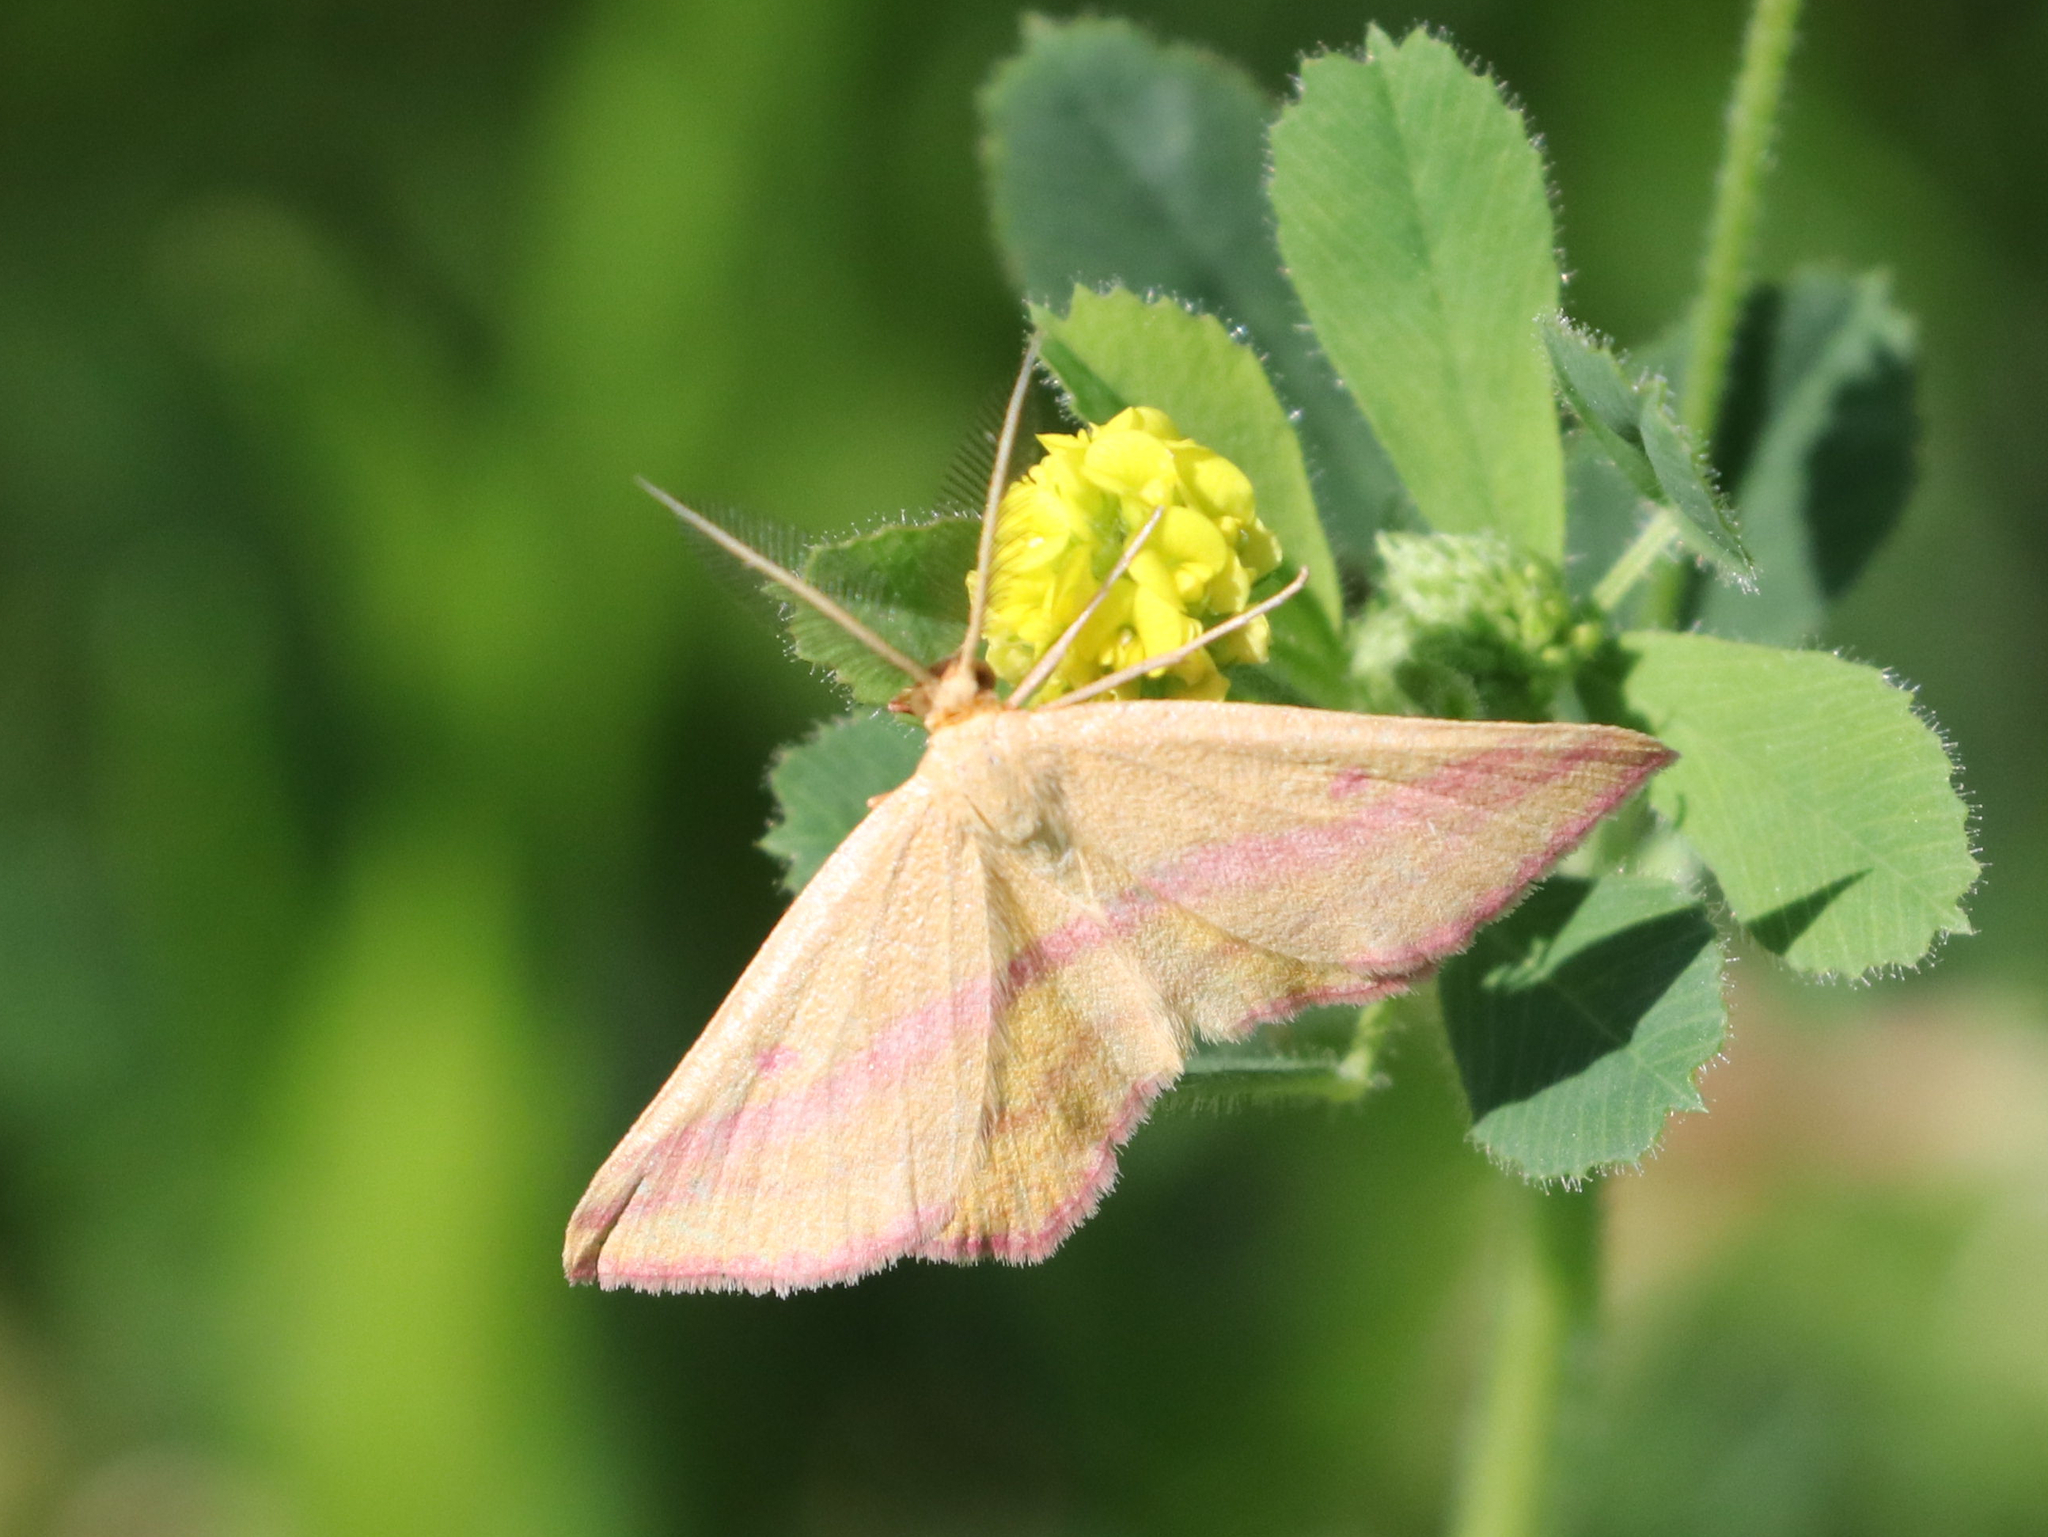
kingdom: Animalia
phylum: Arthropoda
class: Insecta
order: Lepidoptera
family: Geometridae
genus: Haematopis
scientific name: Haematopis grataria
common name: Chickweed geometer
